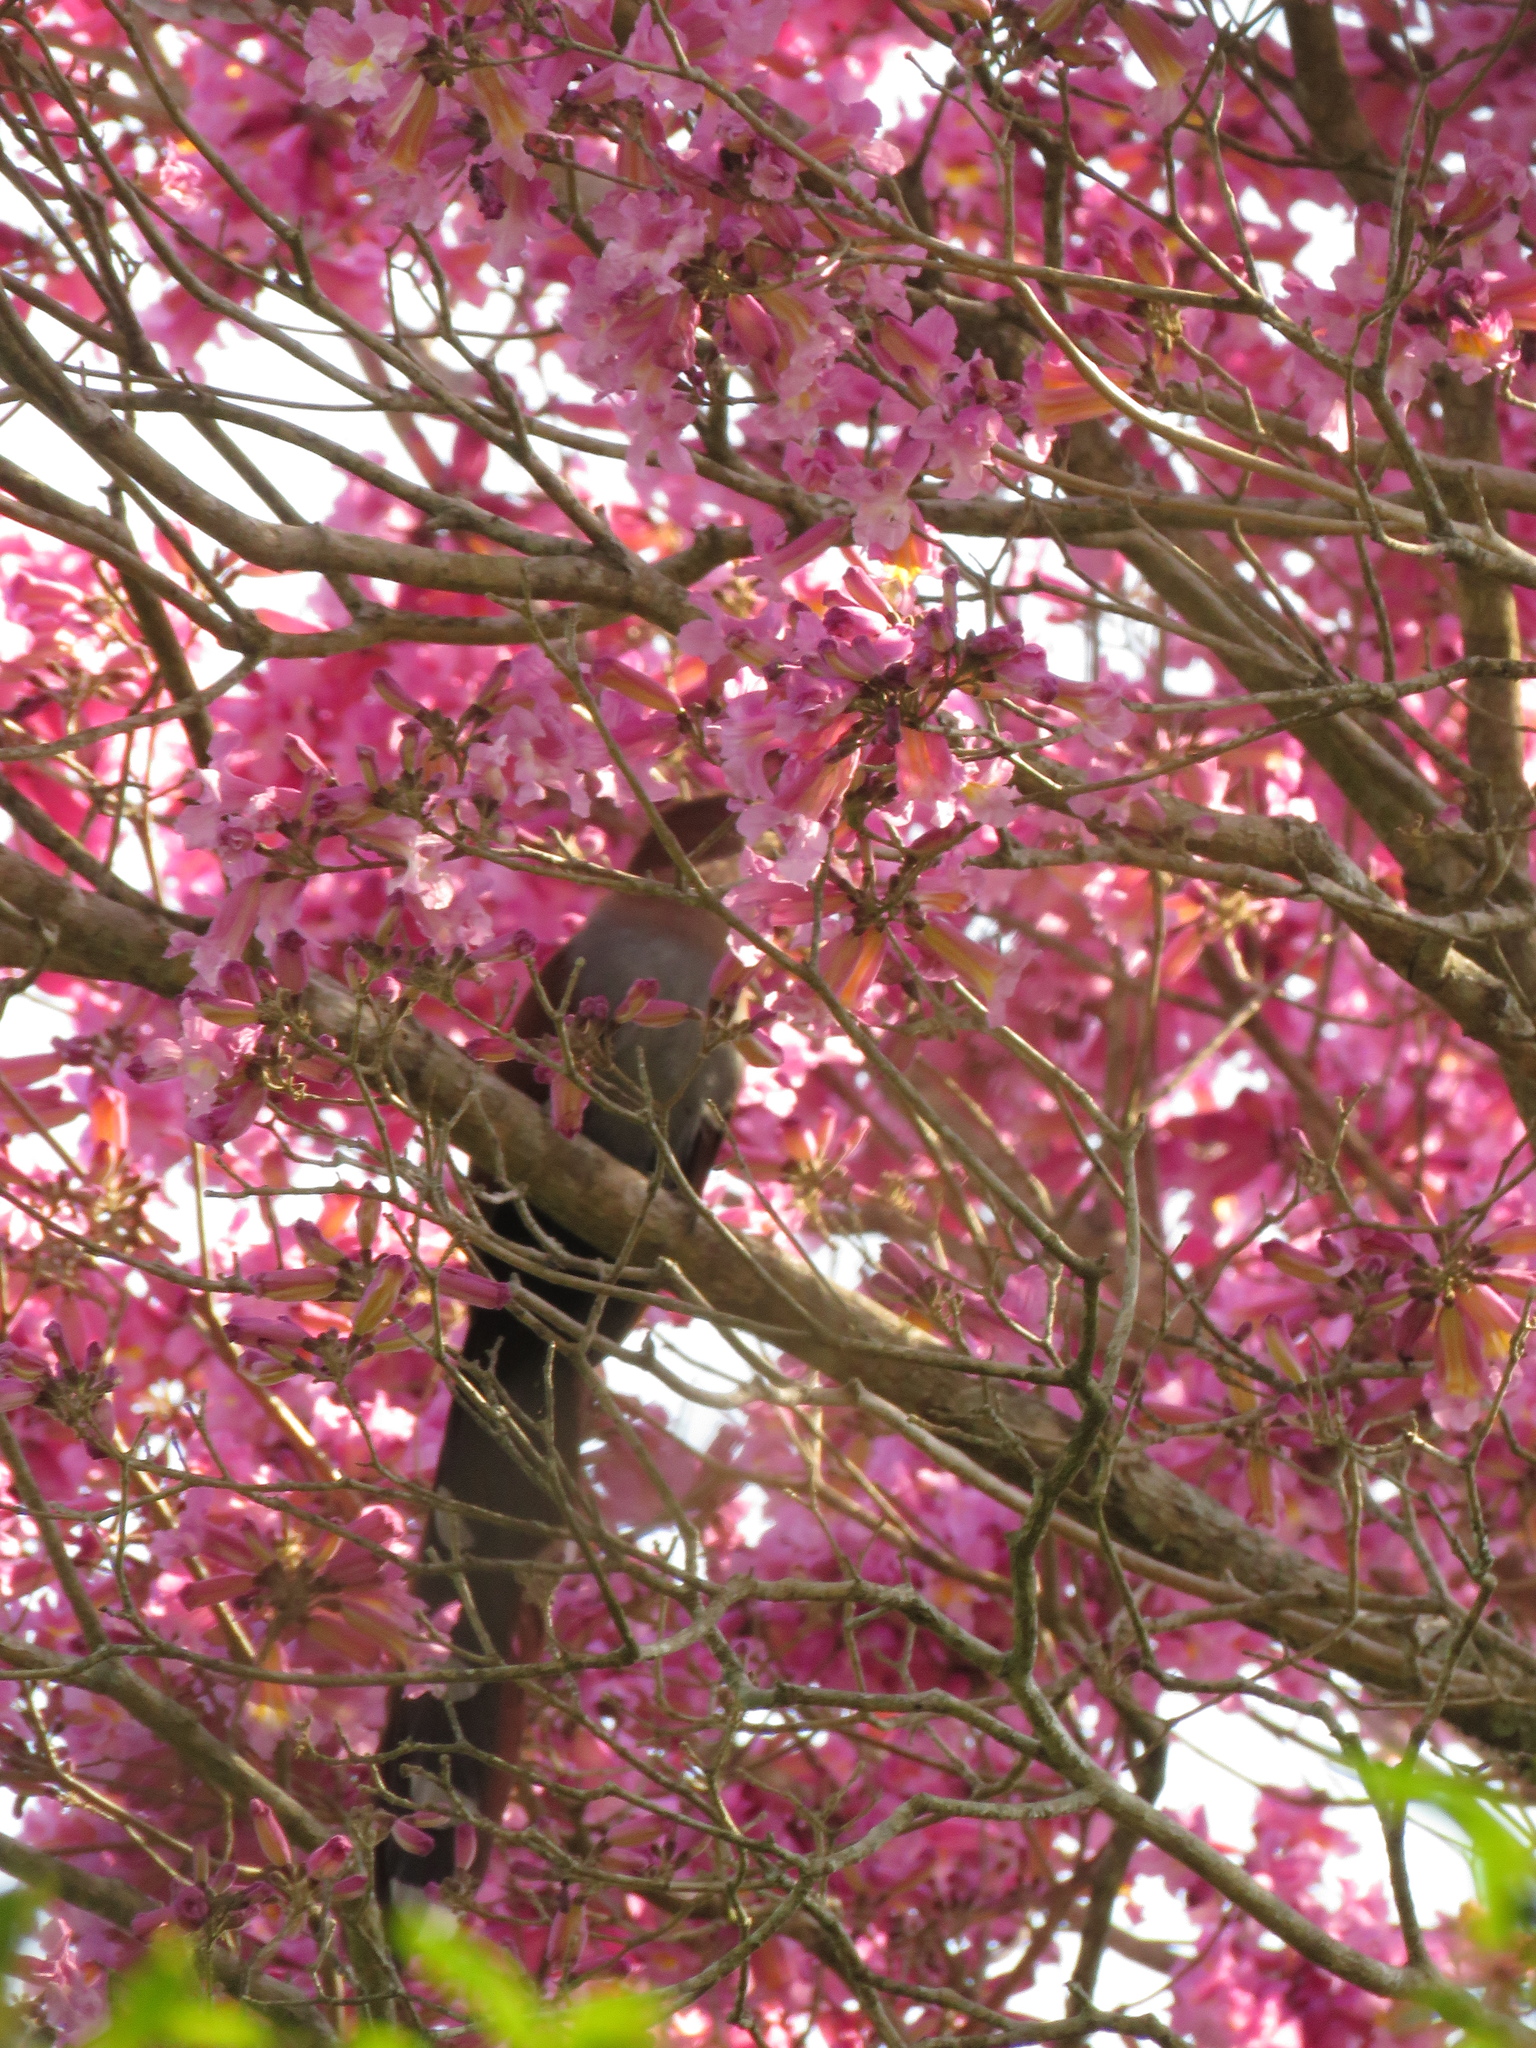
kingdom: Animalia
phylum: Chordata
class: Aves
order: Cuculiformes
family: Cuculidae
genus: Piaya
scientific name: Piaya cayana
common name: Squirrel cuckoo
